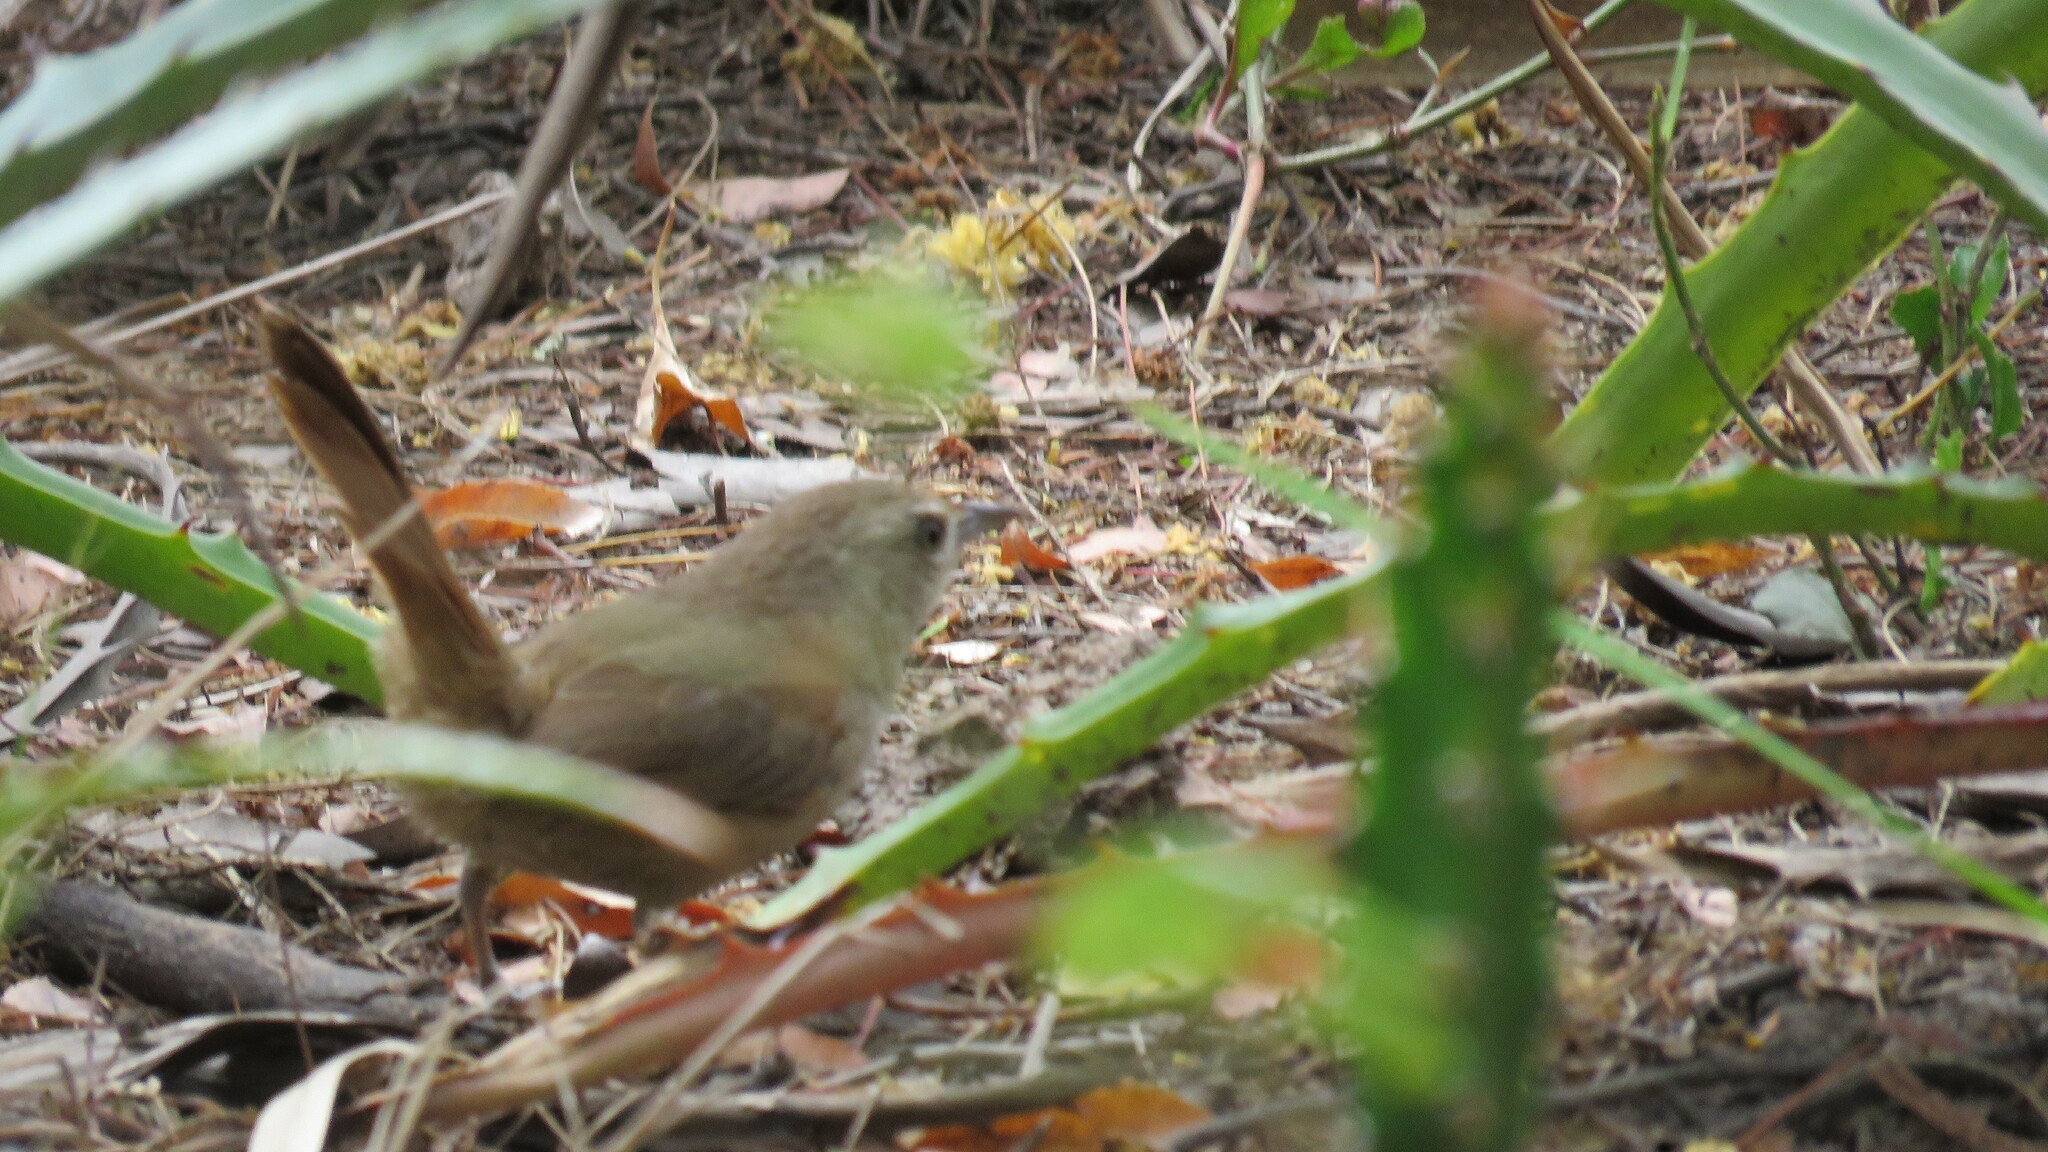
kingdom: Animalia
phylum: Chordata
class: Aves
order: Passeriformes
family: Furnariidae
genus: Asthenes
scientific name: Asthenes baeri
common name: Short-billed canastero
